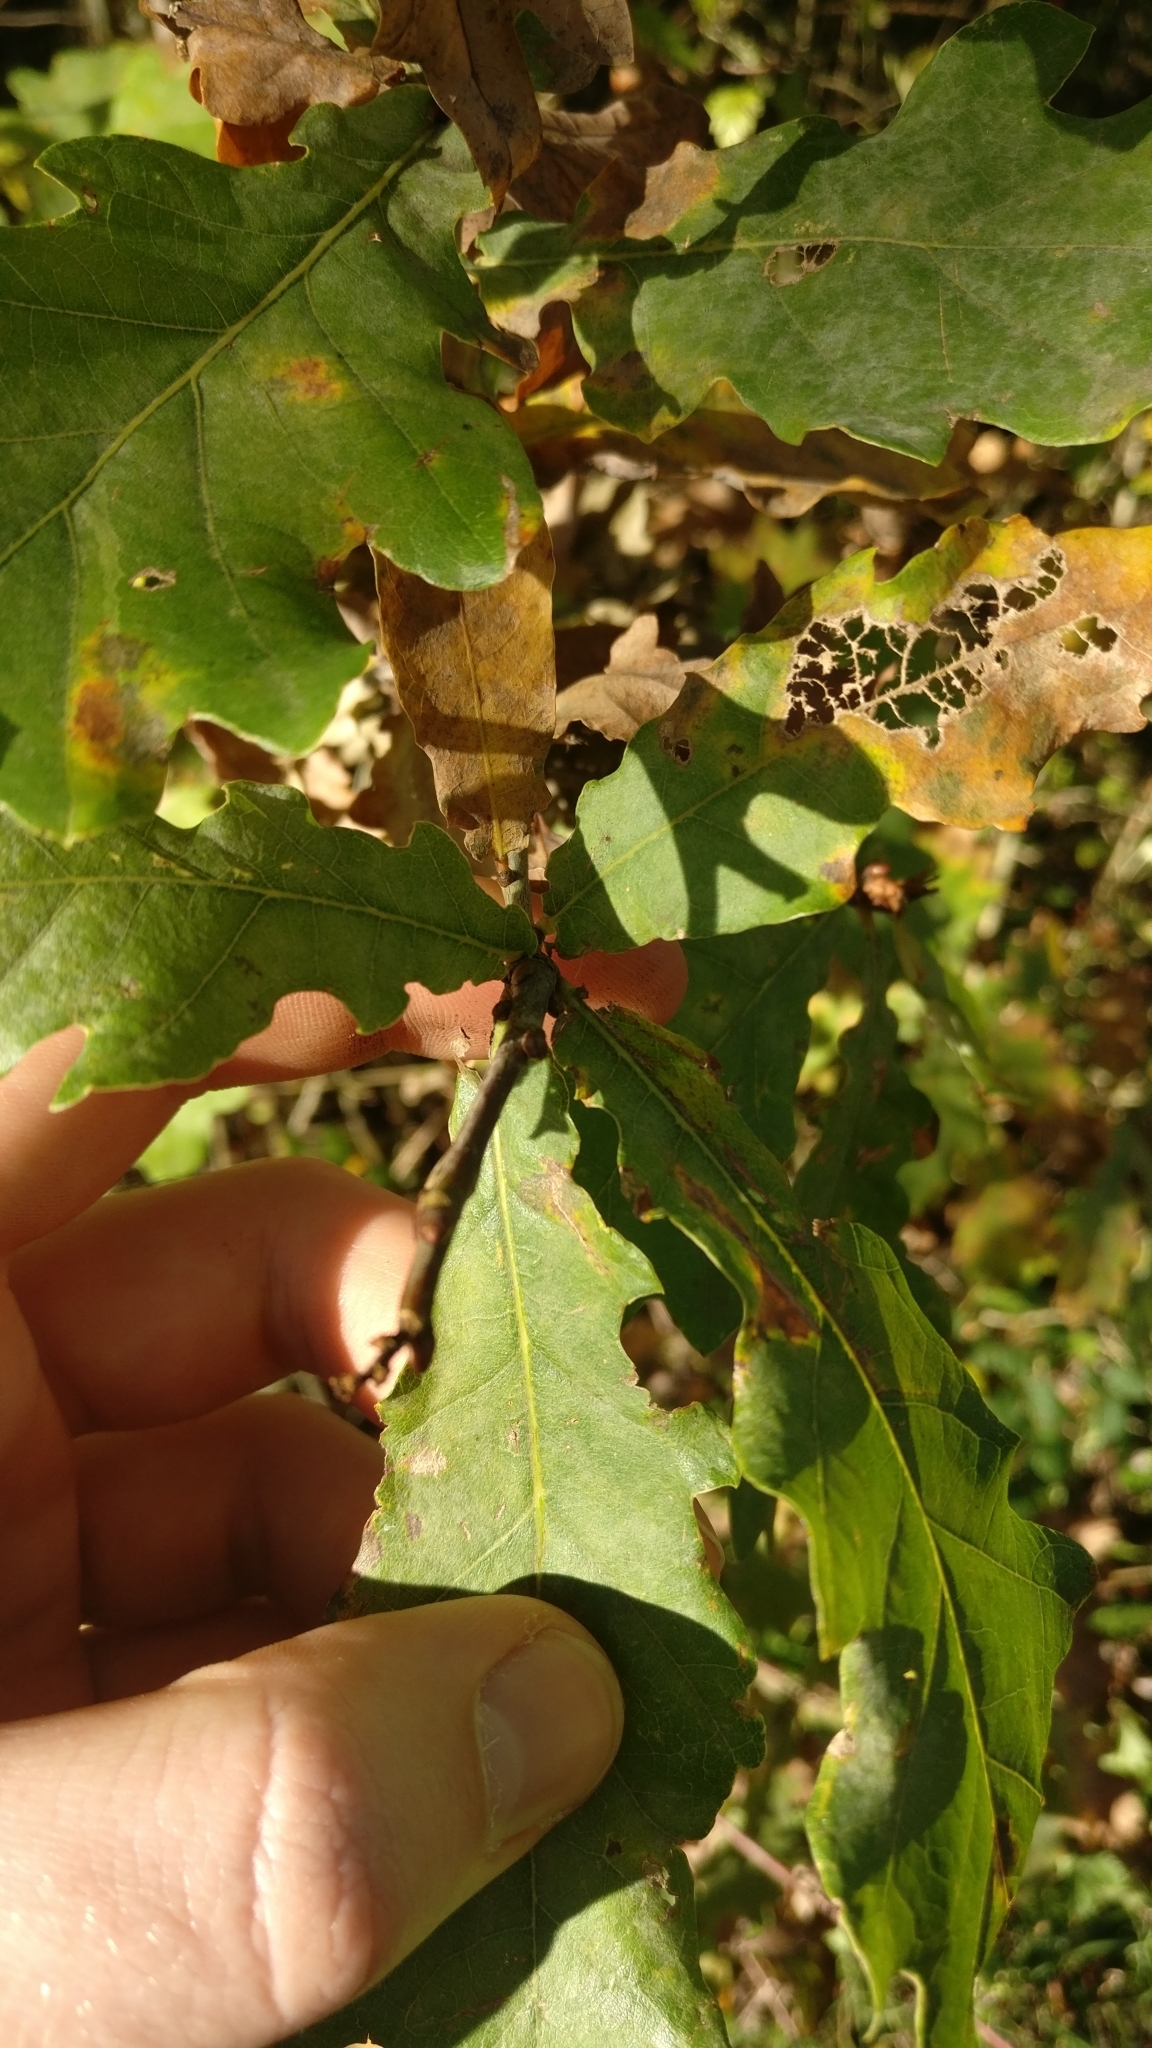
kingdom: Plantae
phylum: Tracheophyta
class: Magnoliopsida
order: Fagales
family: Fagaceae
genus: Quercus
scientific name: Quercus robur
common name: Pedunculate oak
